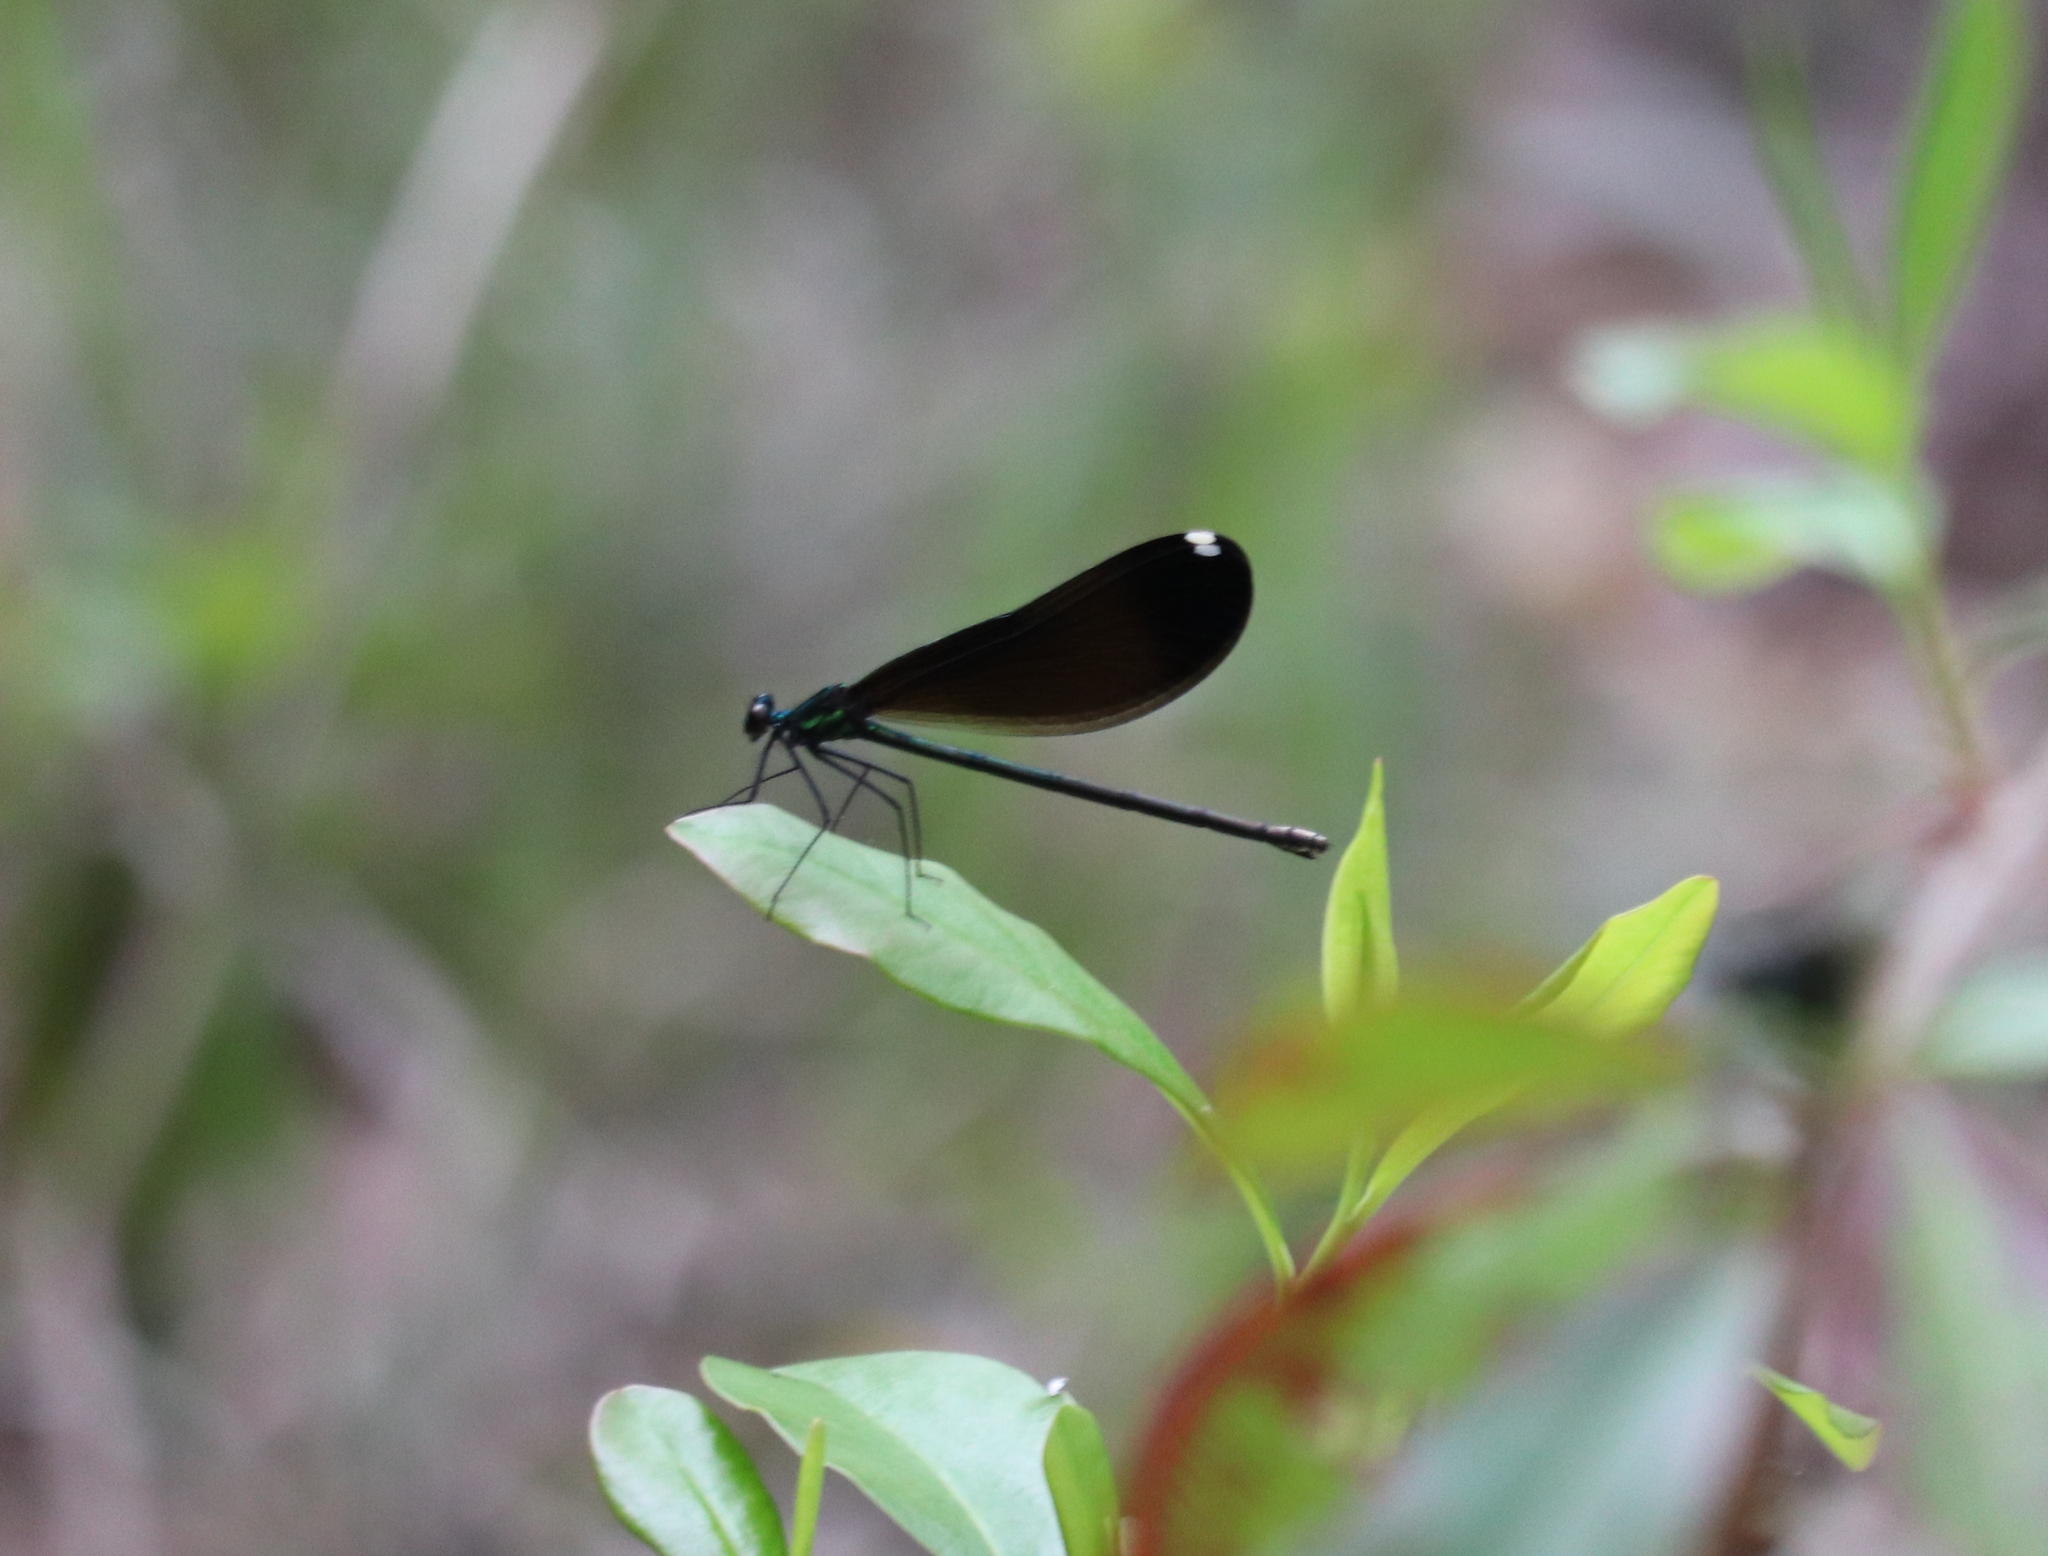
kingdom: Animalia
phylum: Arthropoda
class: Insecta
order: Odonata
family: Calopterygidae
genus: Calopteryx
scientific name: Calopteryx maculata
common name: Ebony jewelwing
